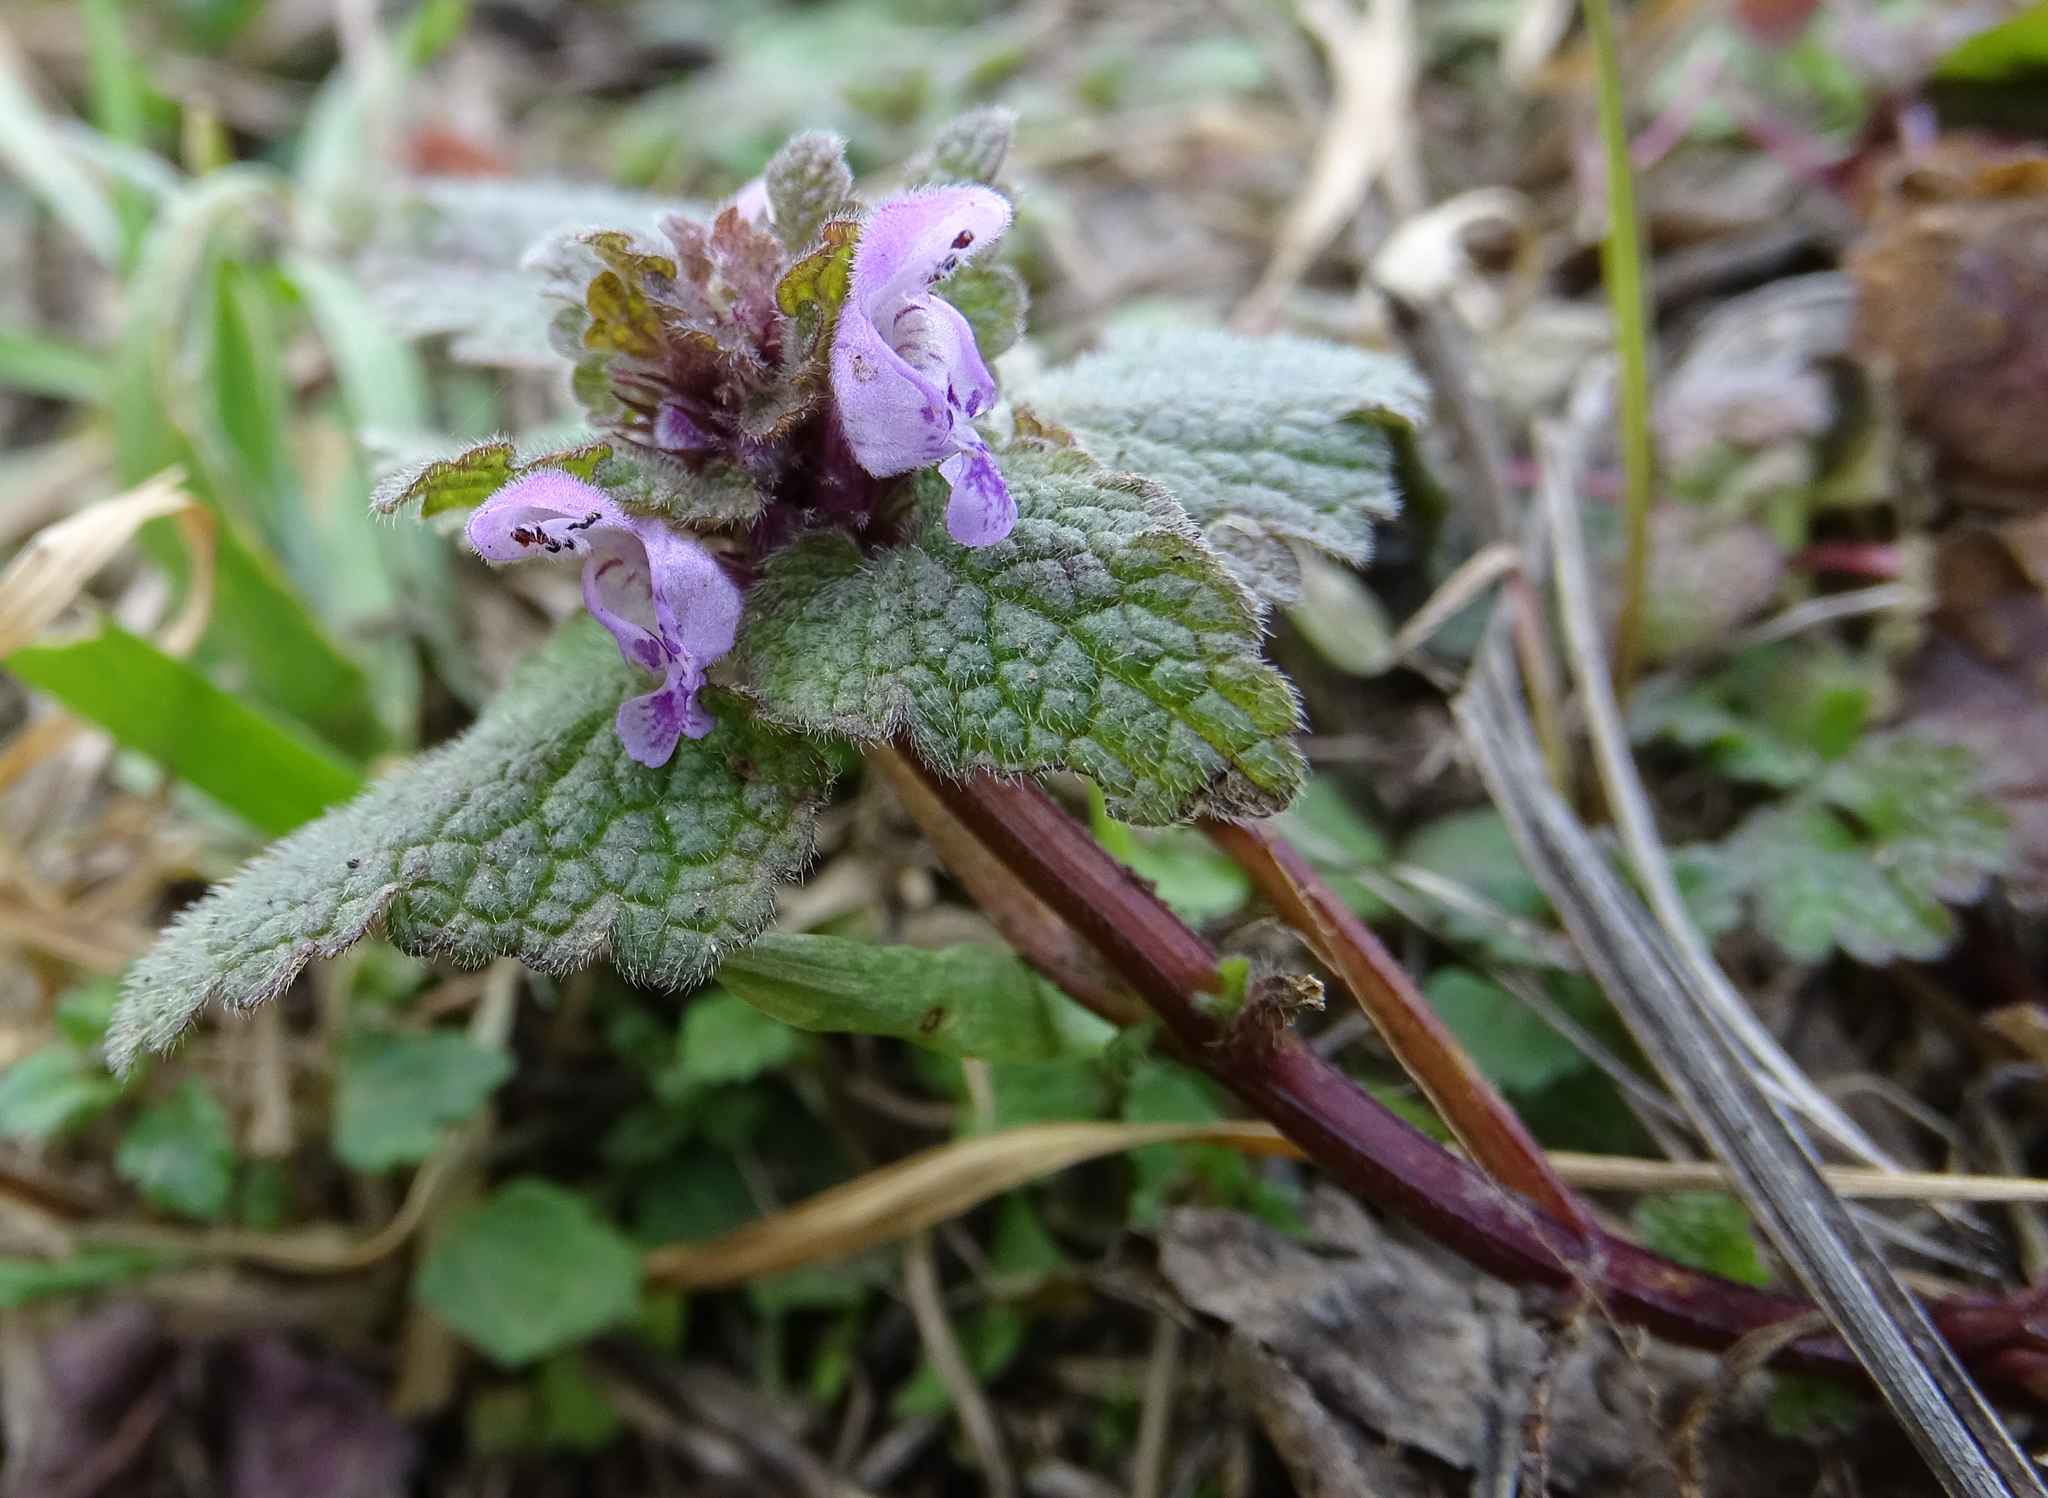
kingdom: Plantae
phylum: Tracheophyta
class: Magnoliopsida
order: Lamiales
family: Lamiaceae
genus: Lamium
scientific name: Lamium purpureum
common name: Red dead-nettle
